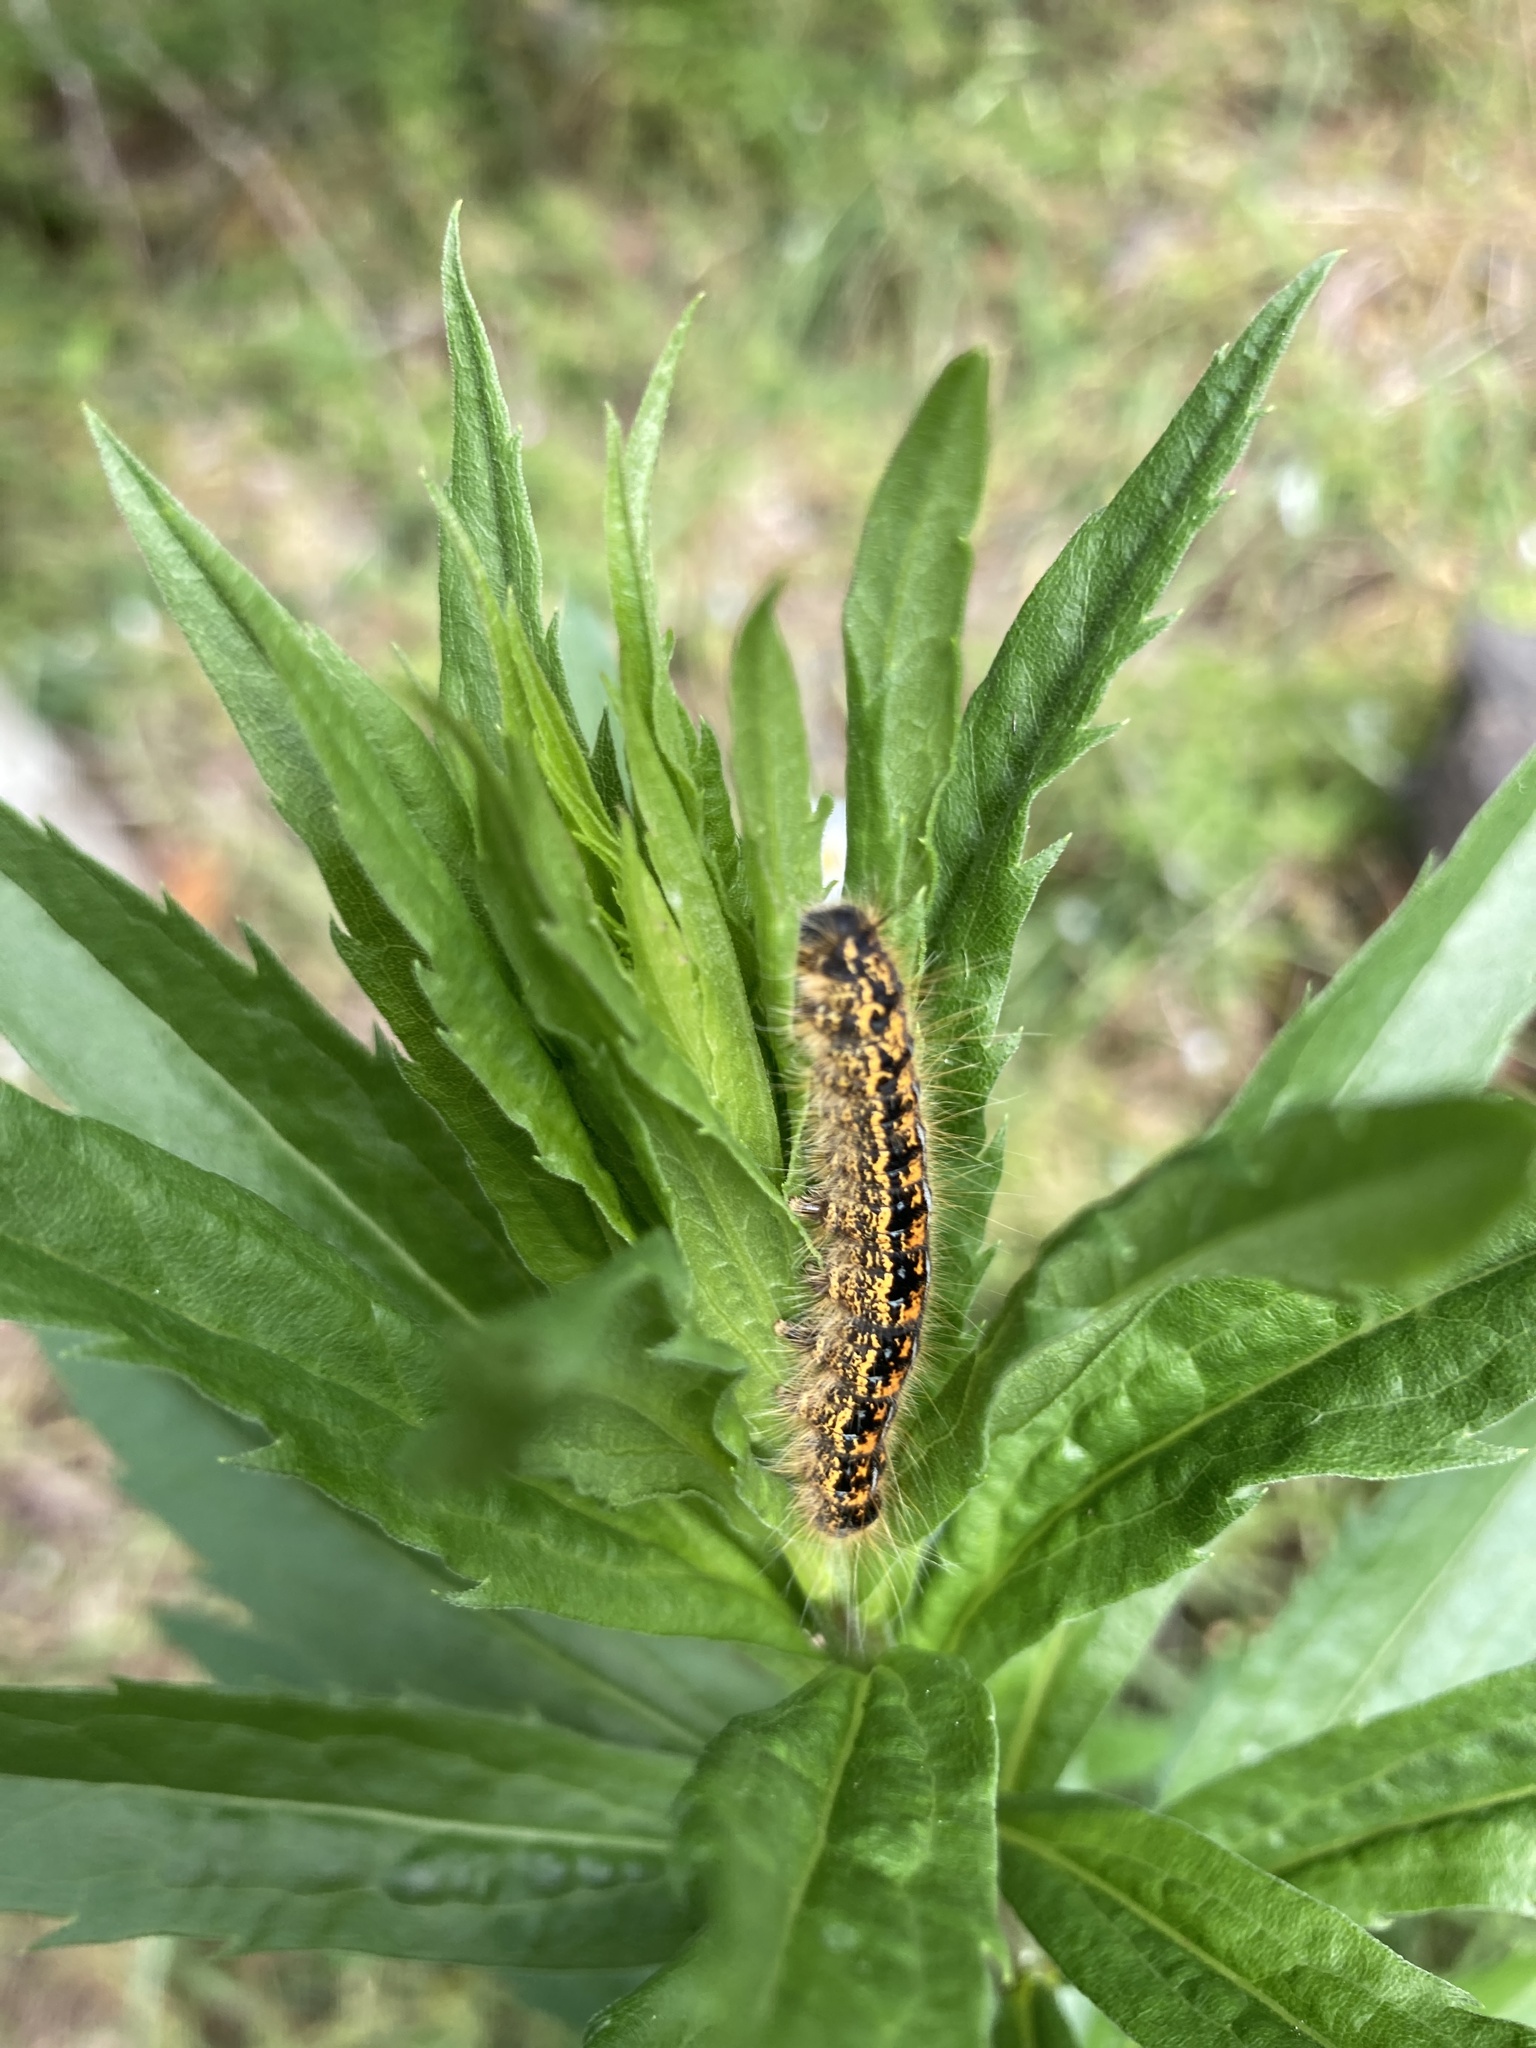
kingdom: Animalia
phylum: Arthropoda
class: Insecta
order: Lepidoptera
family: Lasiocampidae
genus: Malacosoma
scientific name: Malacosoma californica
